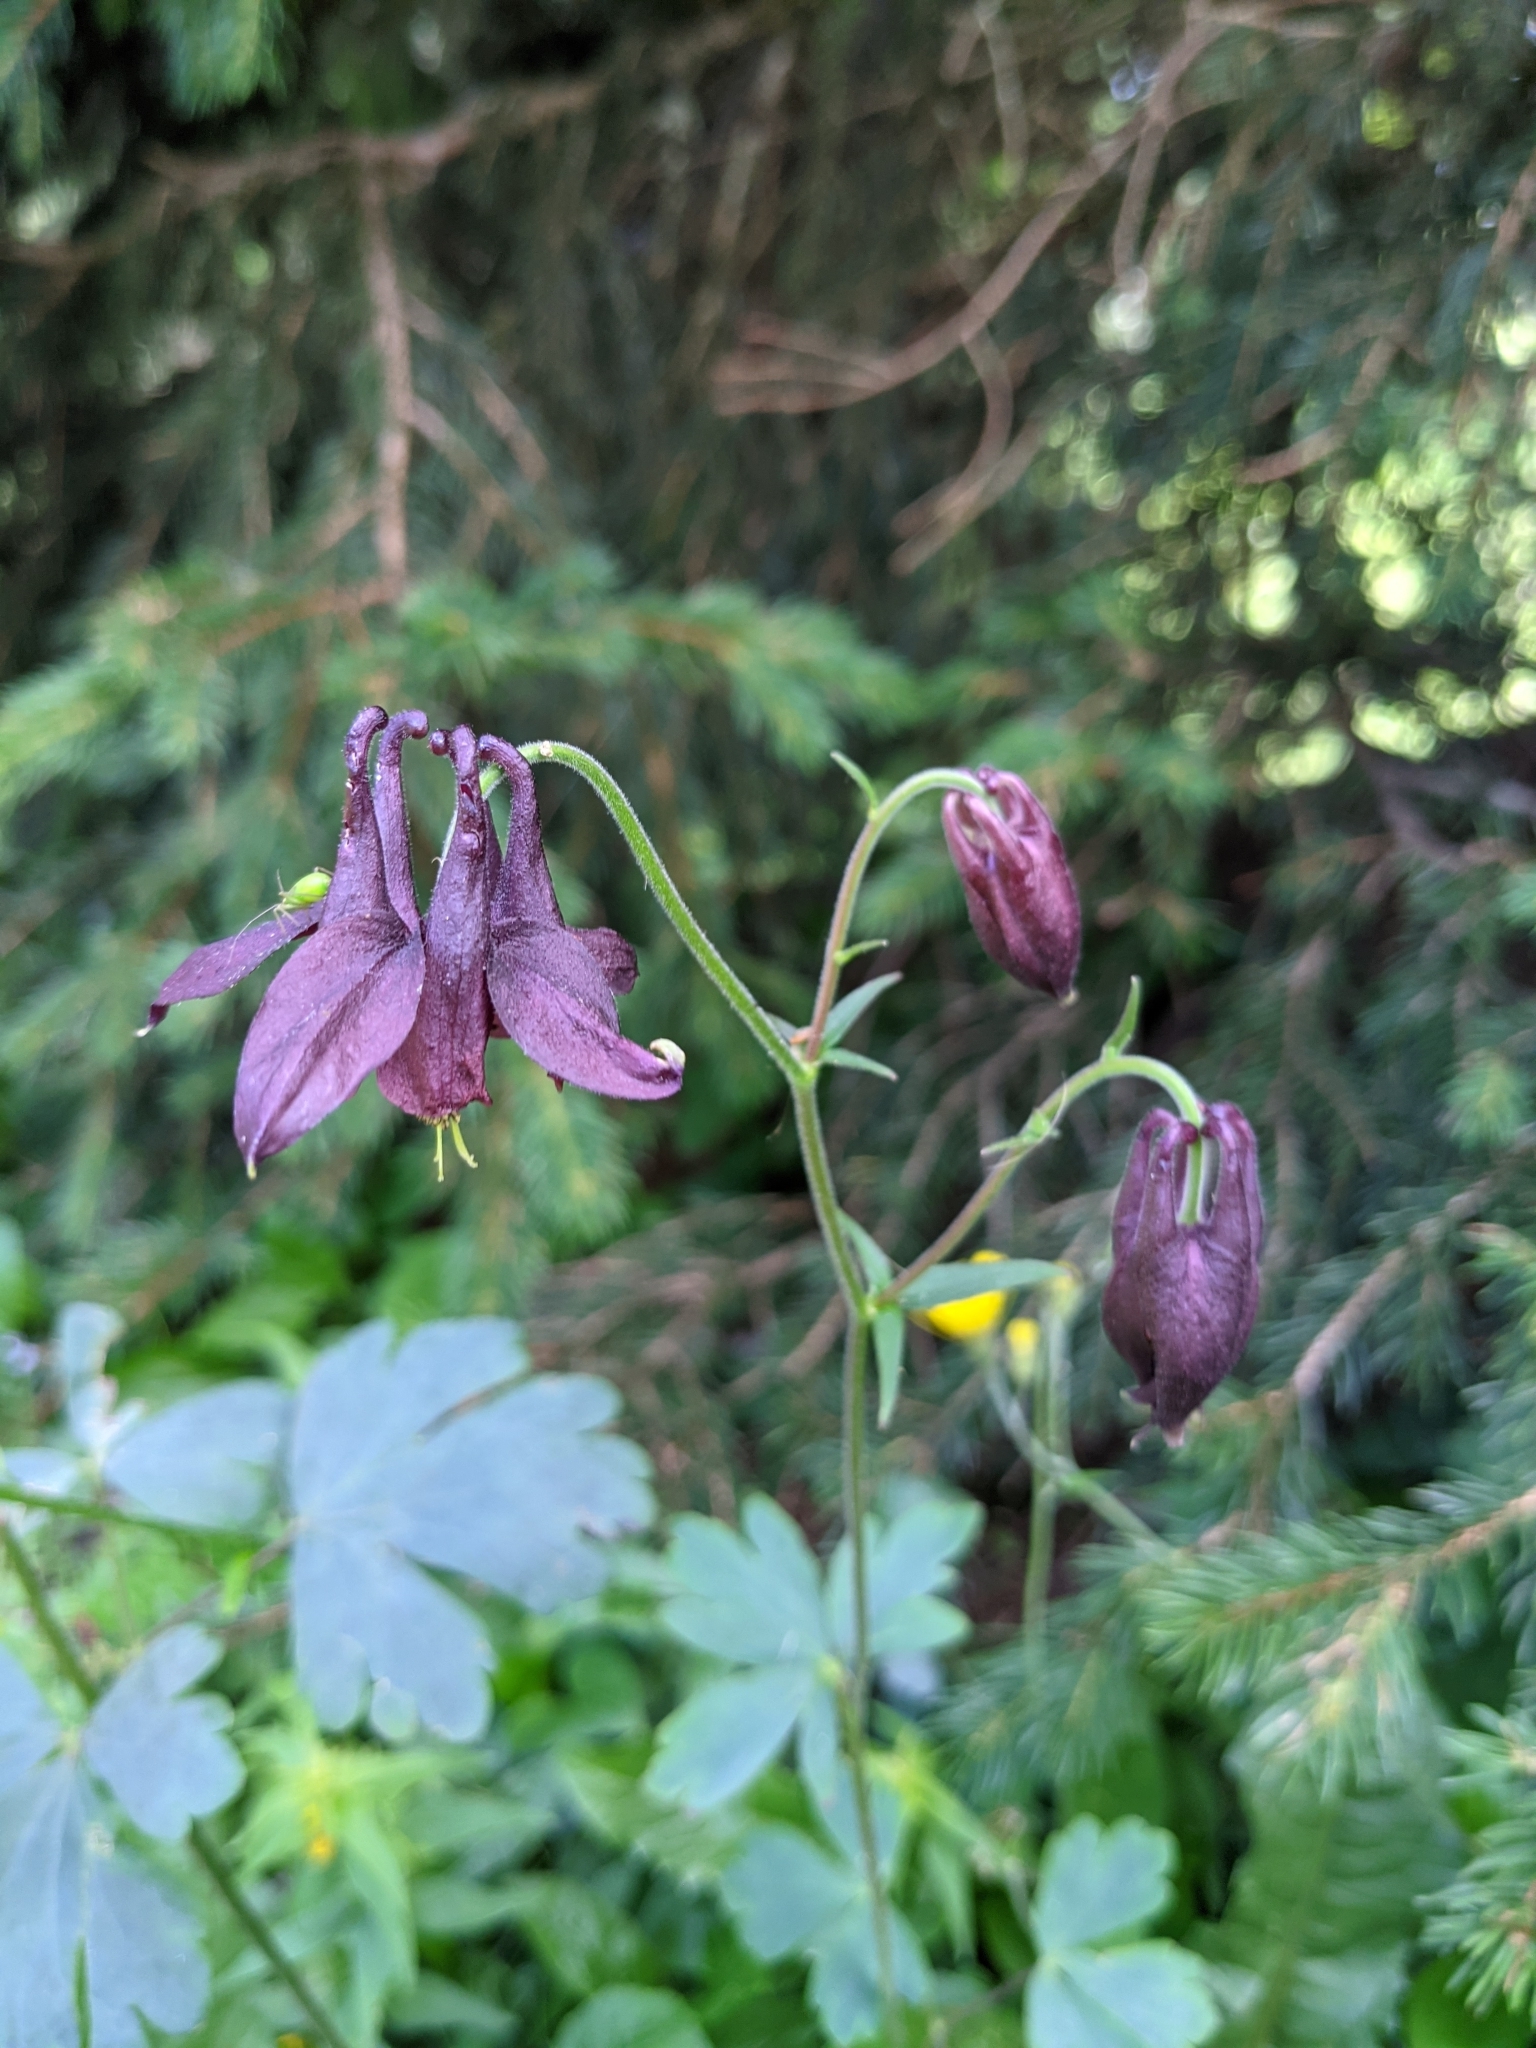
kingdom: Plantae
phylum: Tracheophyta
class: Magnoliopsida
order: Ranunculales
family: Ranunculaceae
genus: Aquilegia
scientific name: Aquilegia atrata
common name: Dark columbine
